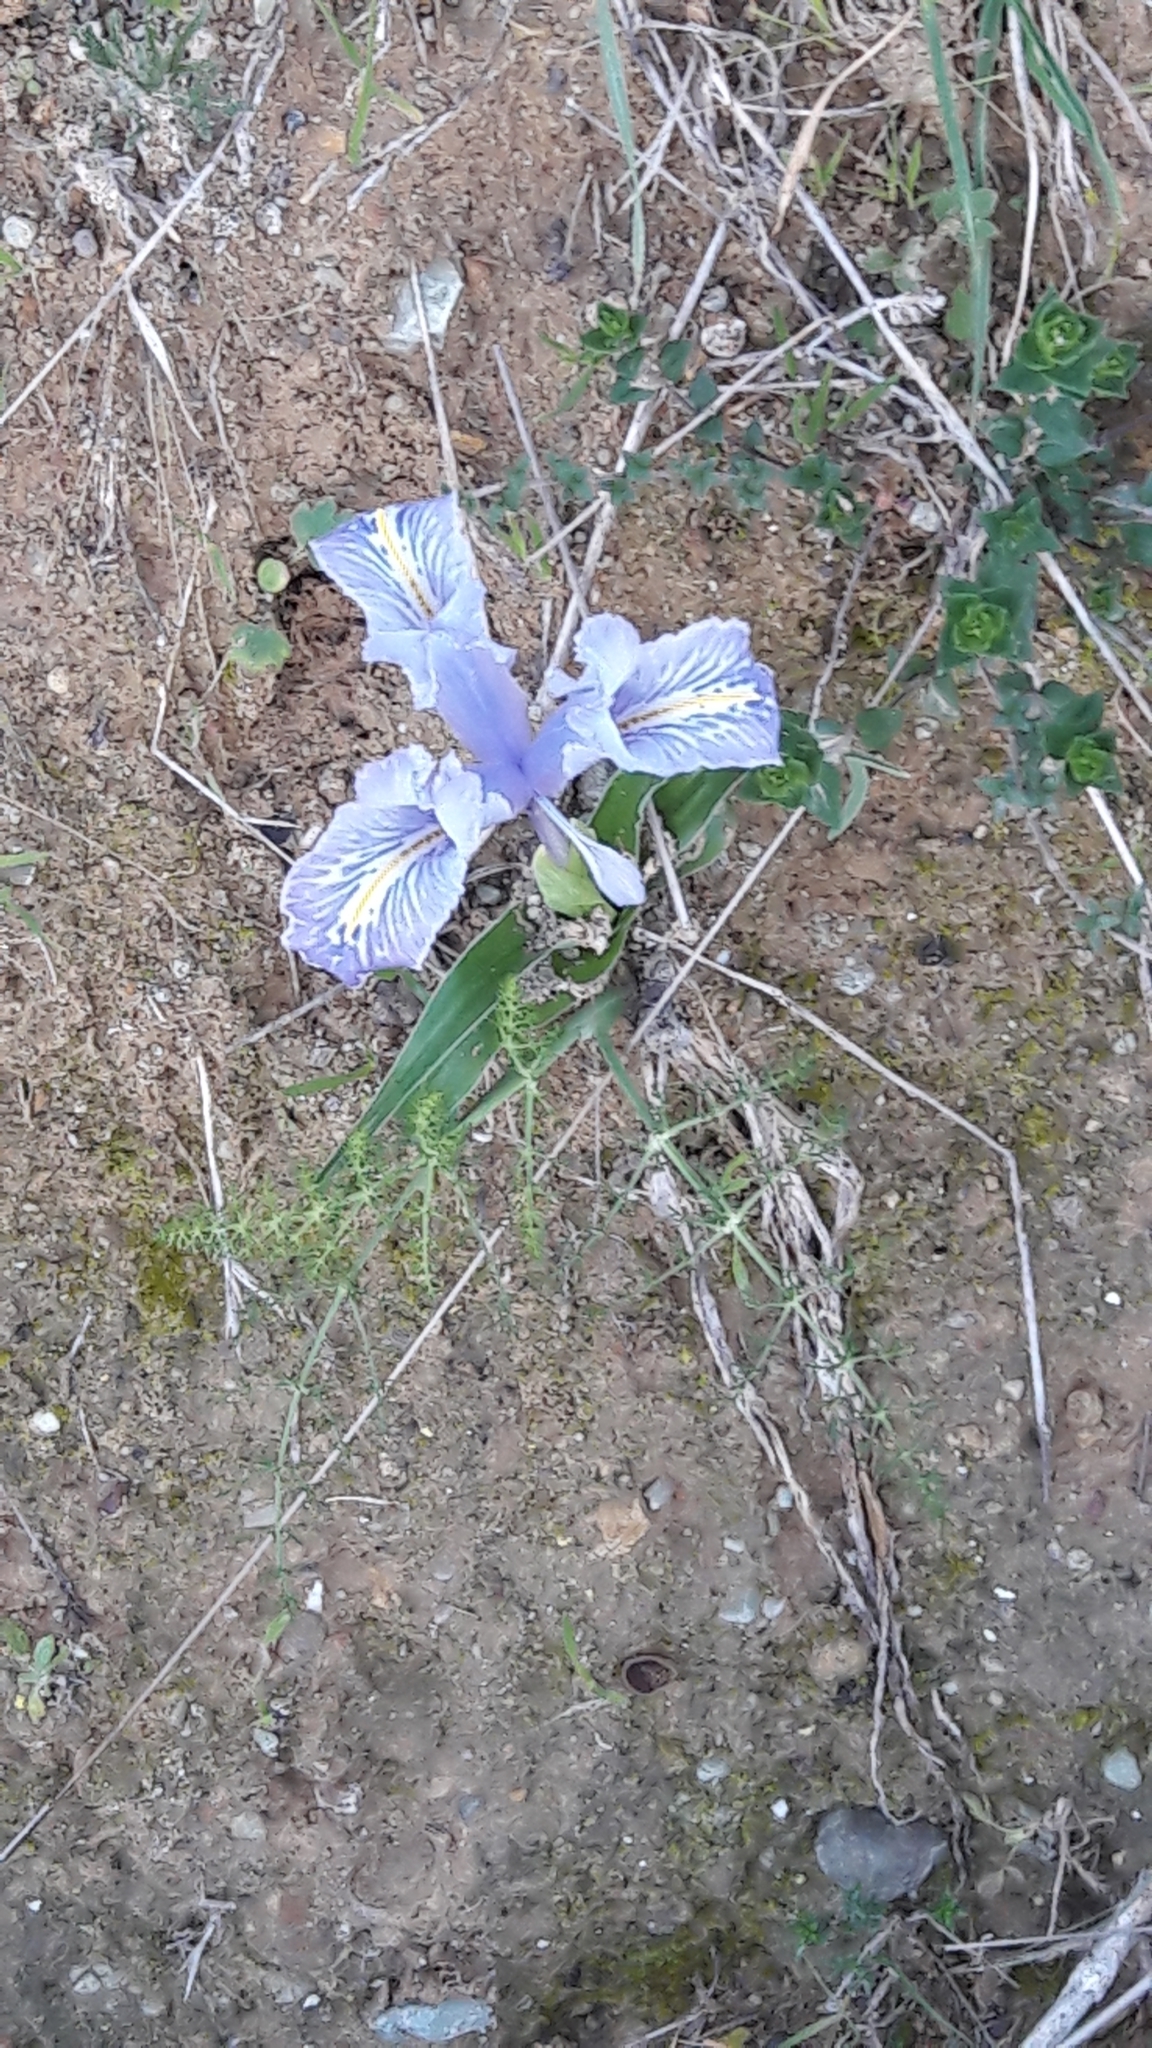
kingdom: Plantae
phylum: Tracheophyta
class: Liliopsida
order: Asparagales
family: Iridaceae
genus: Iris
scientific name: Iris planifolia
